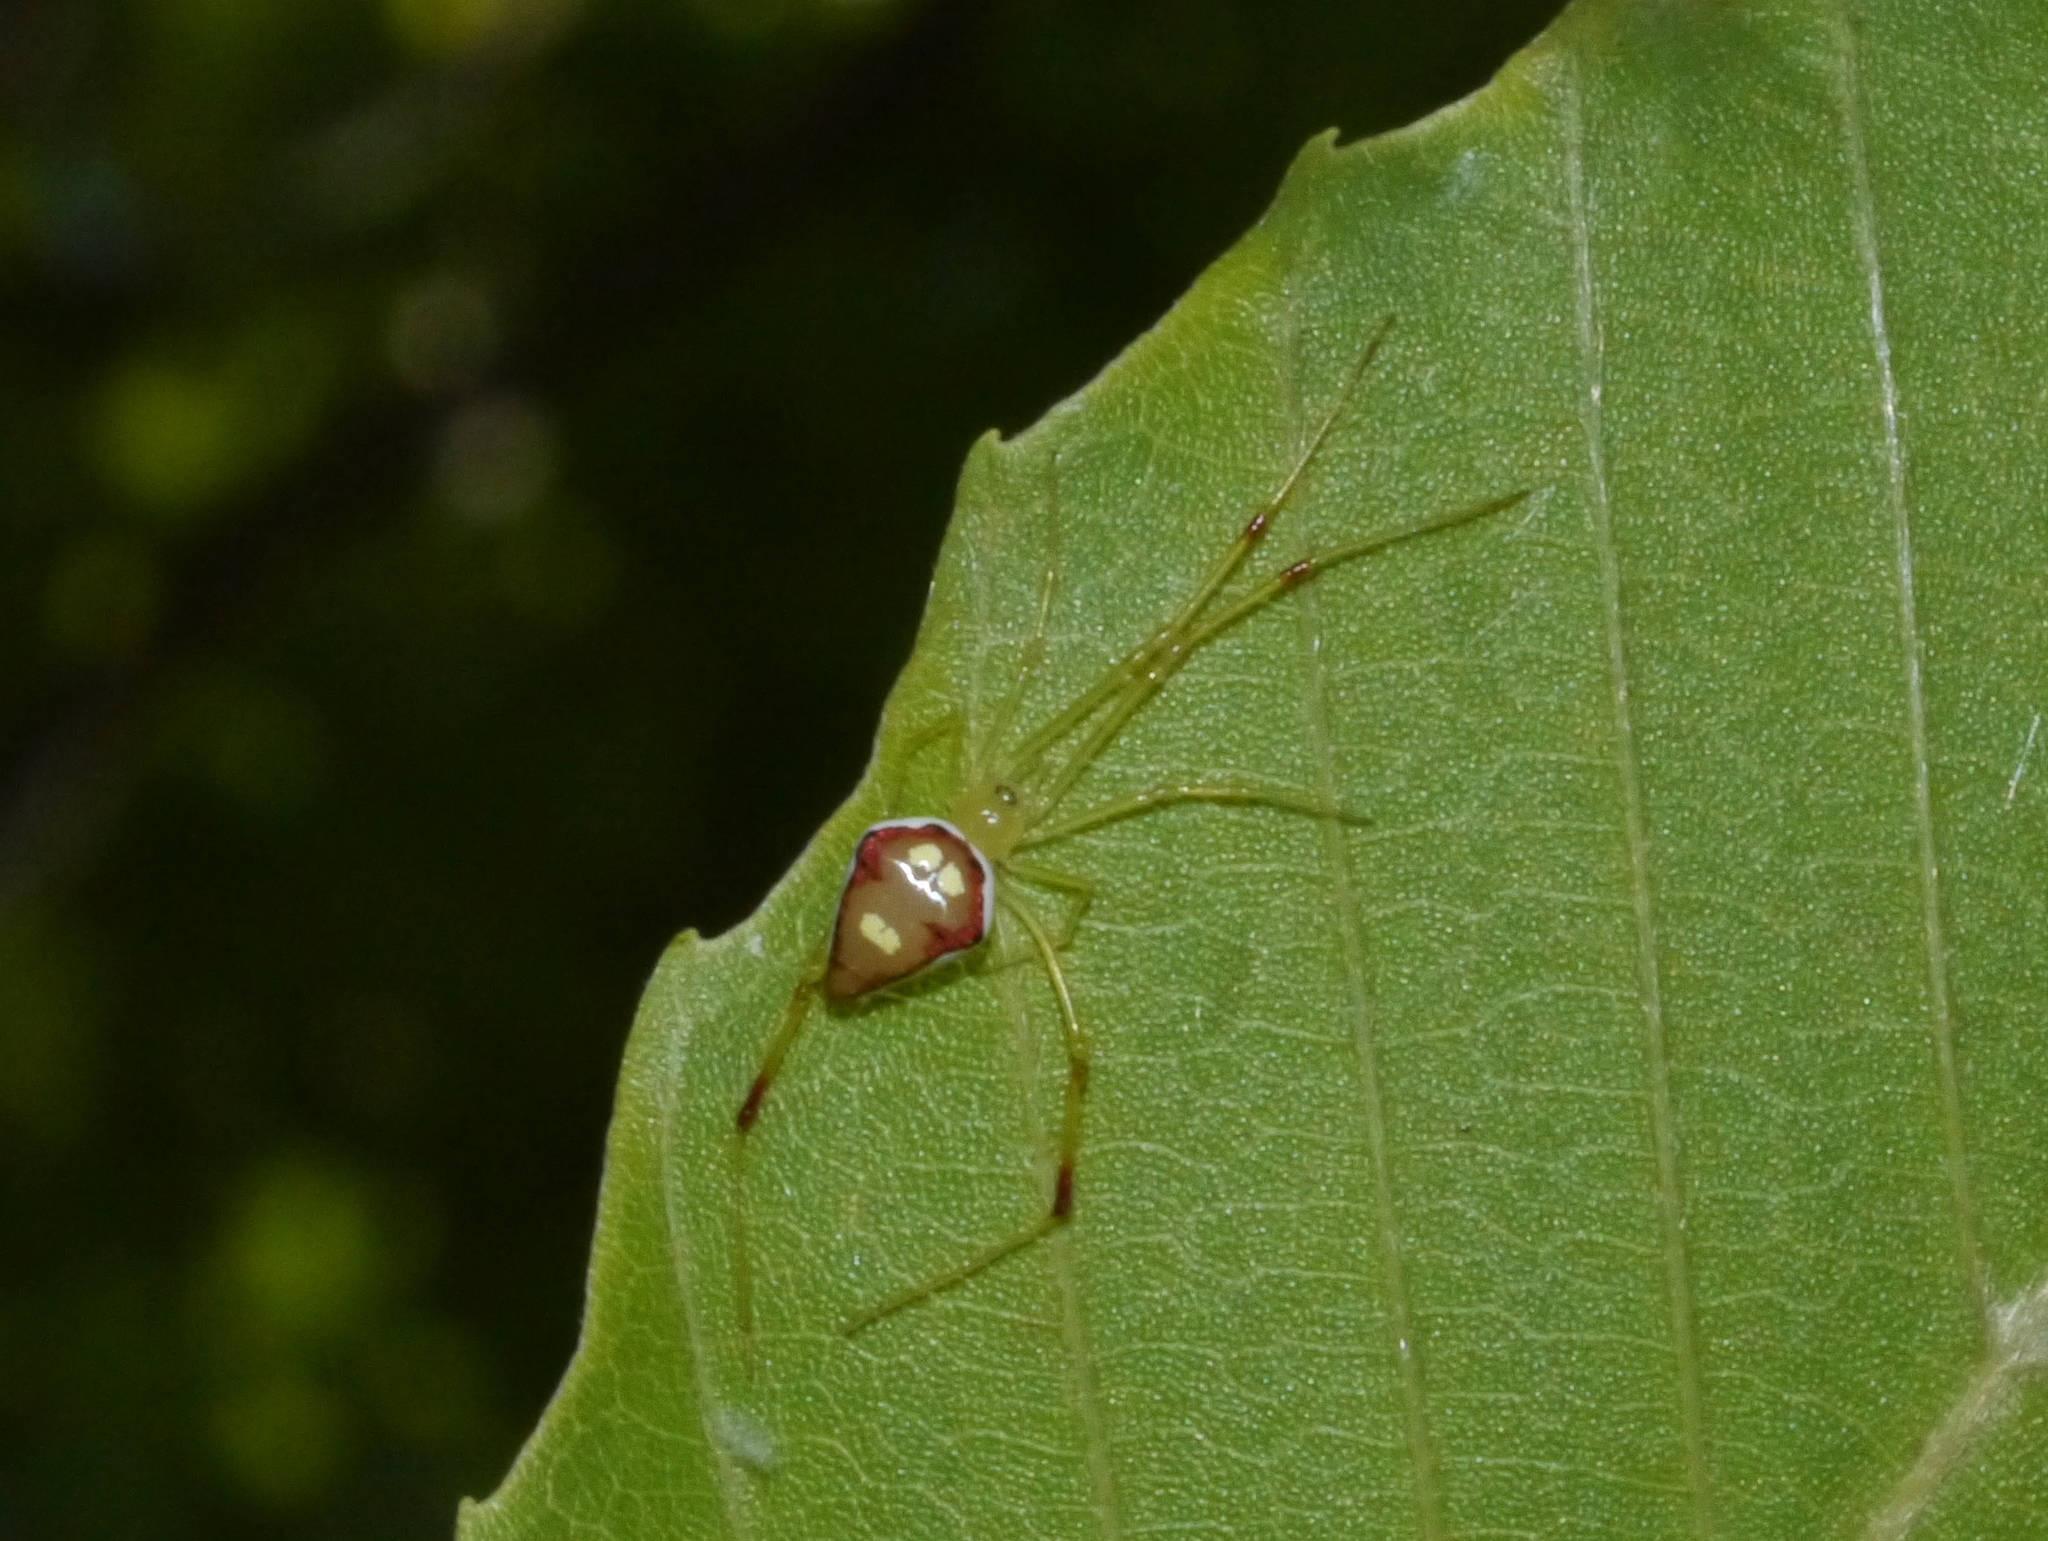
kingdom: Animalia
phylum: Arthropoda
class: Arachnida
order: Araneae
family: Theridiidae
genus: Spintharus
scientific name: Spintharus flavidus
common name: Cobweb spiders
